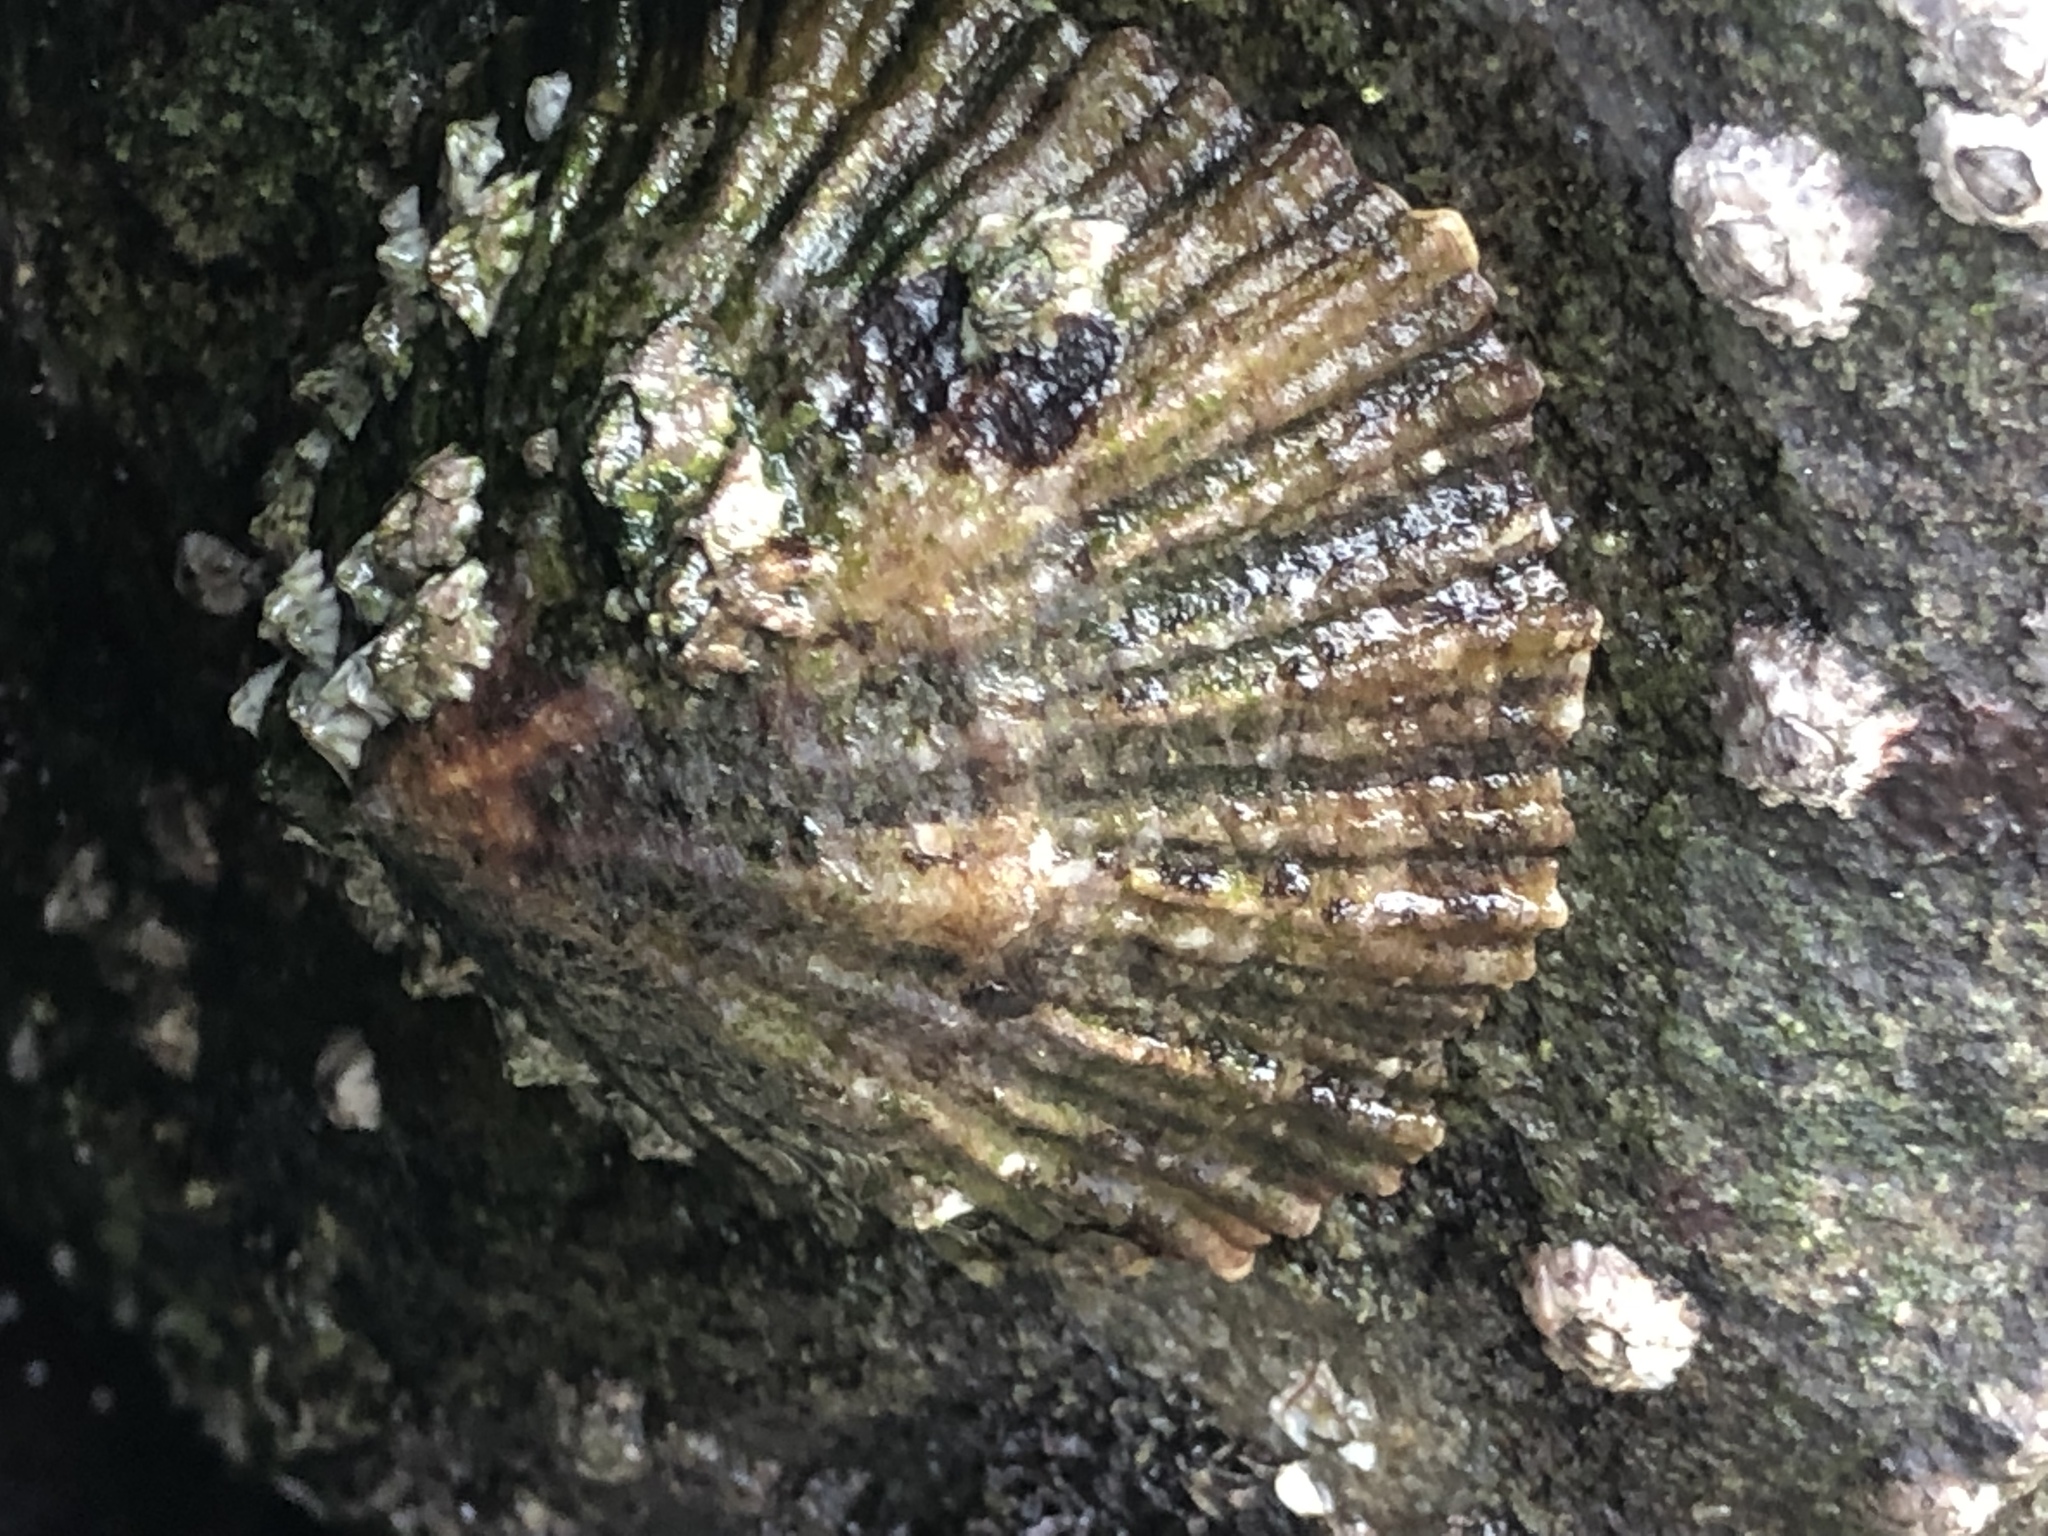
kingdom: Animalia
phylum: Mollusca
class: Gastropoda
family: Patellidae
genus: Patella
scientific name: Patella vulgata
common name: Common limpet
